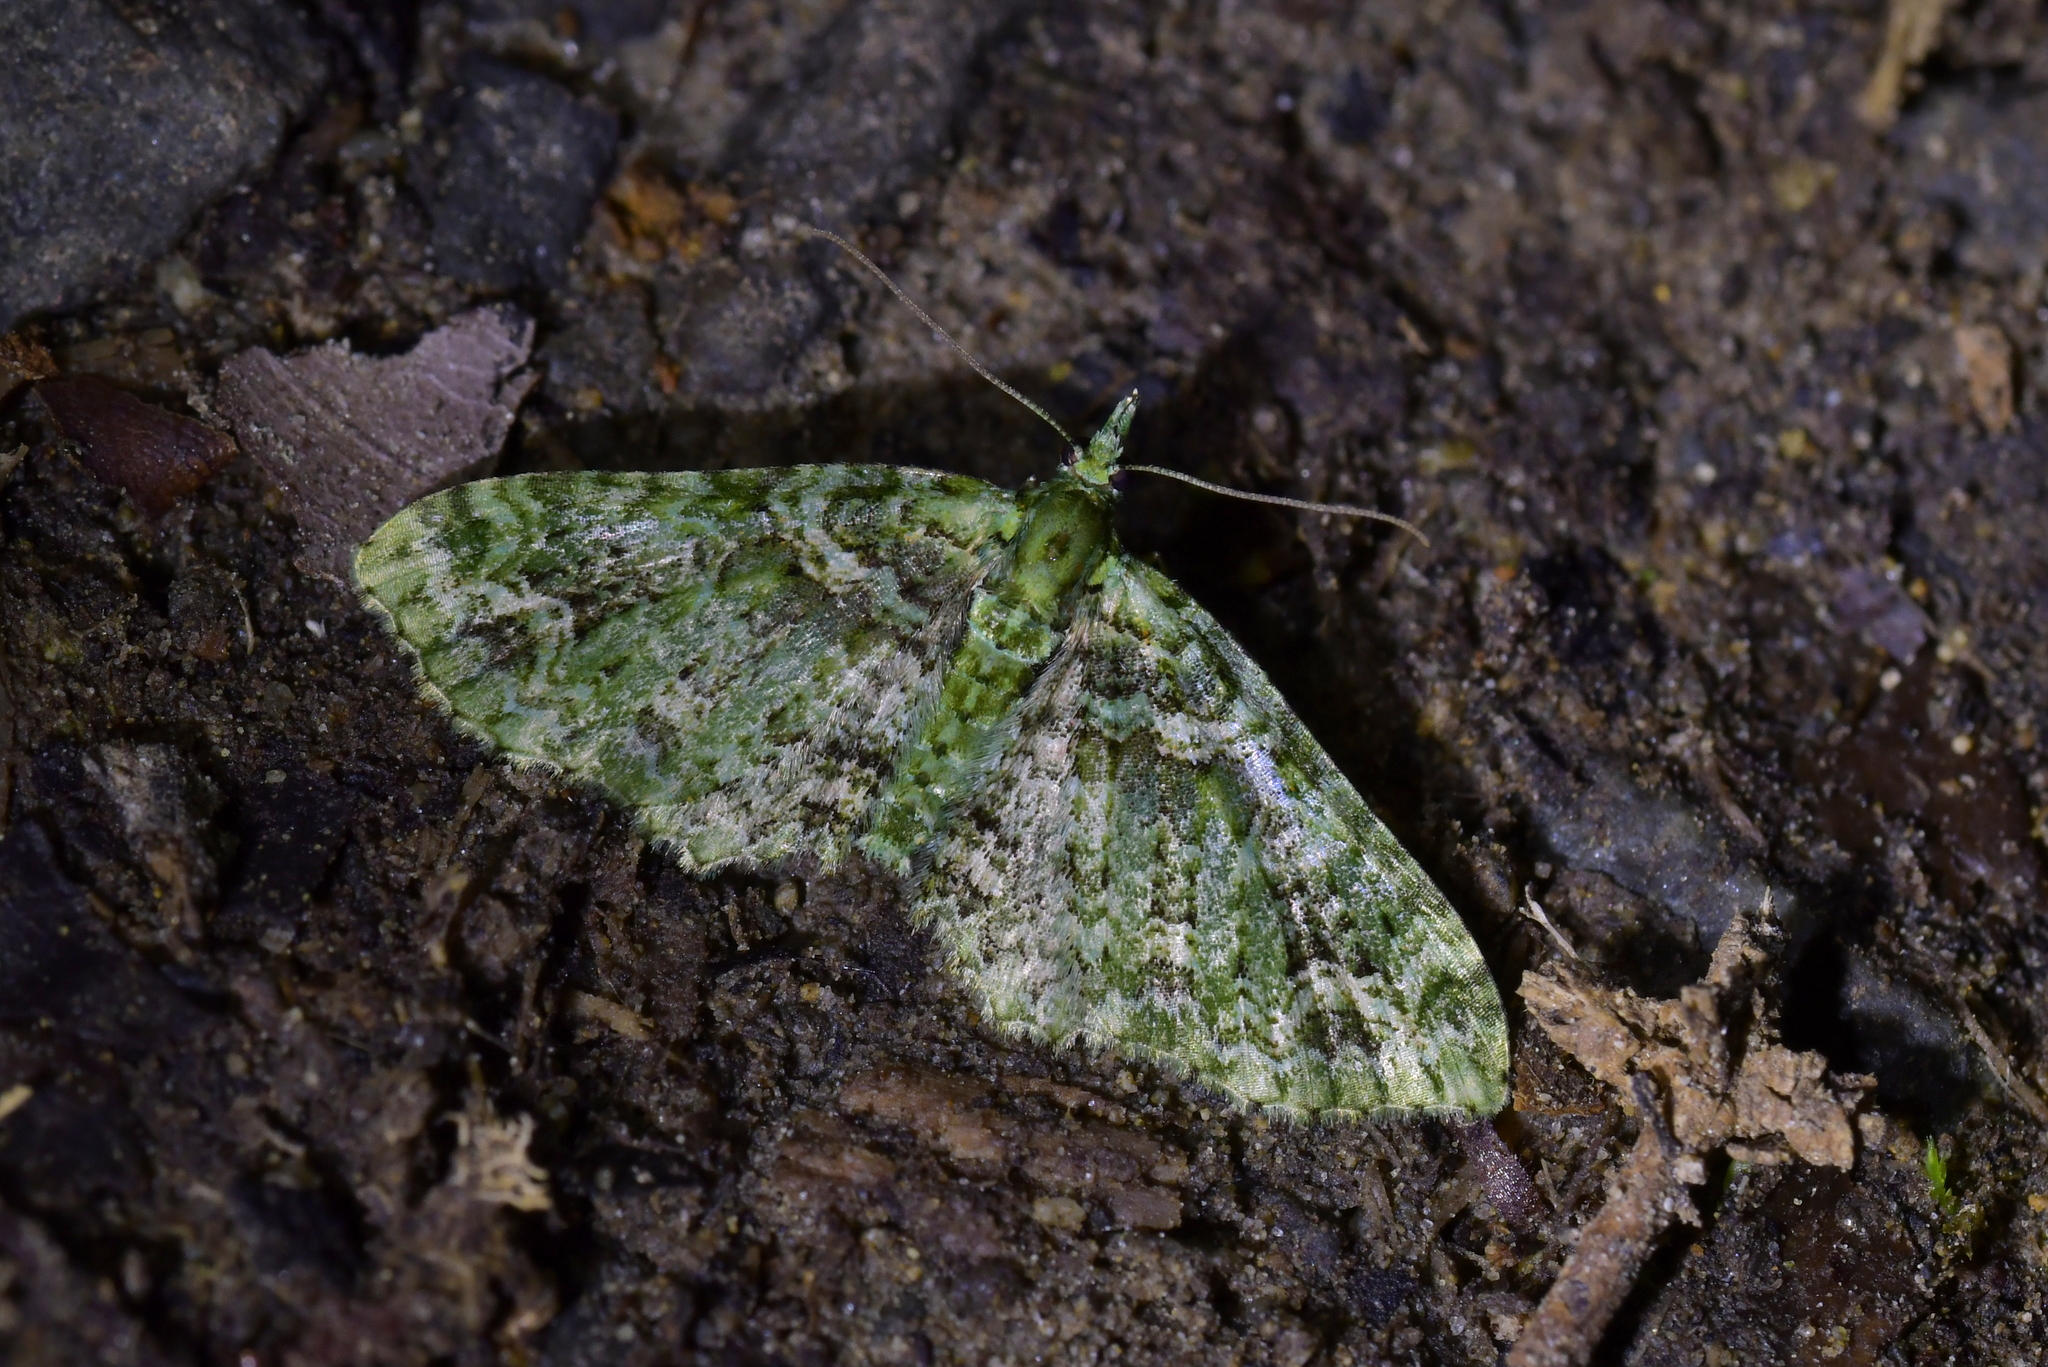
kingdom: Animalia
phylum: Arthropoda
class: Insecta
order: Lepidoptera
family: Geometridae
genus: Pasiphila
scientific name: Pasiphila muscosata
